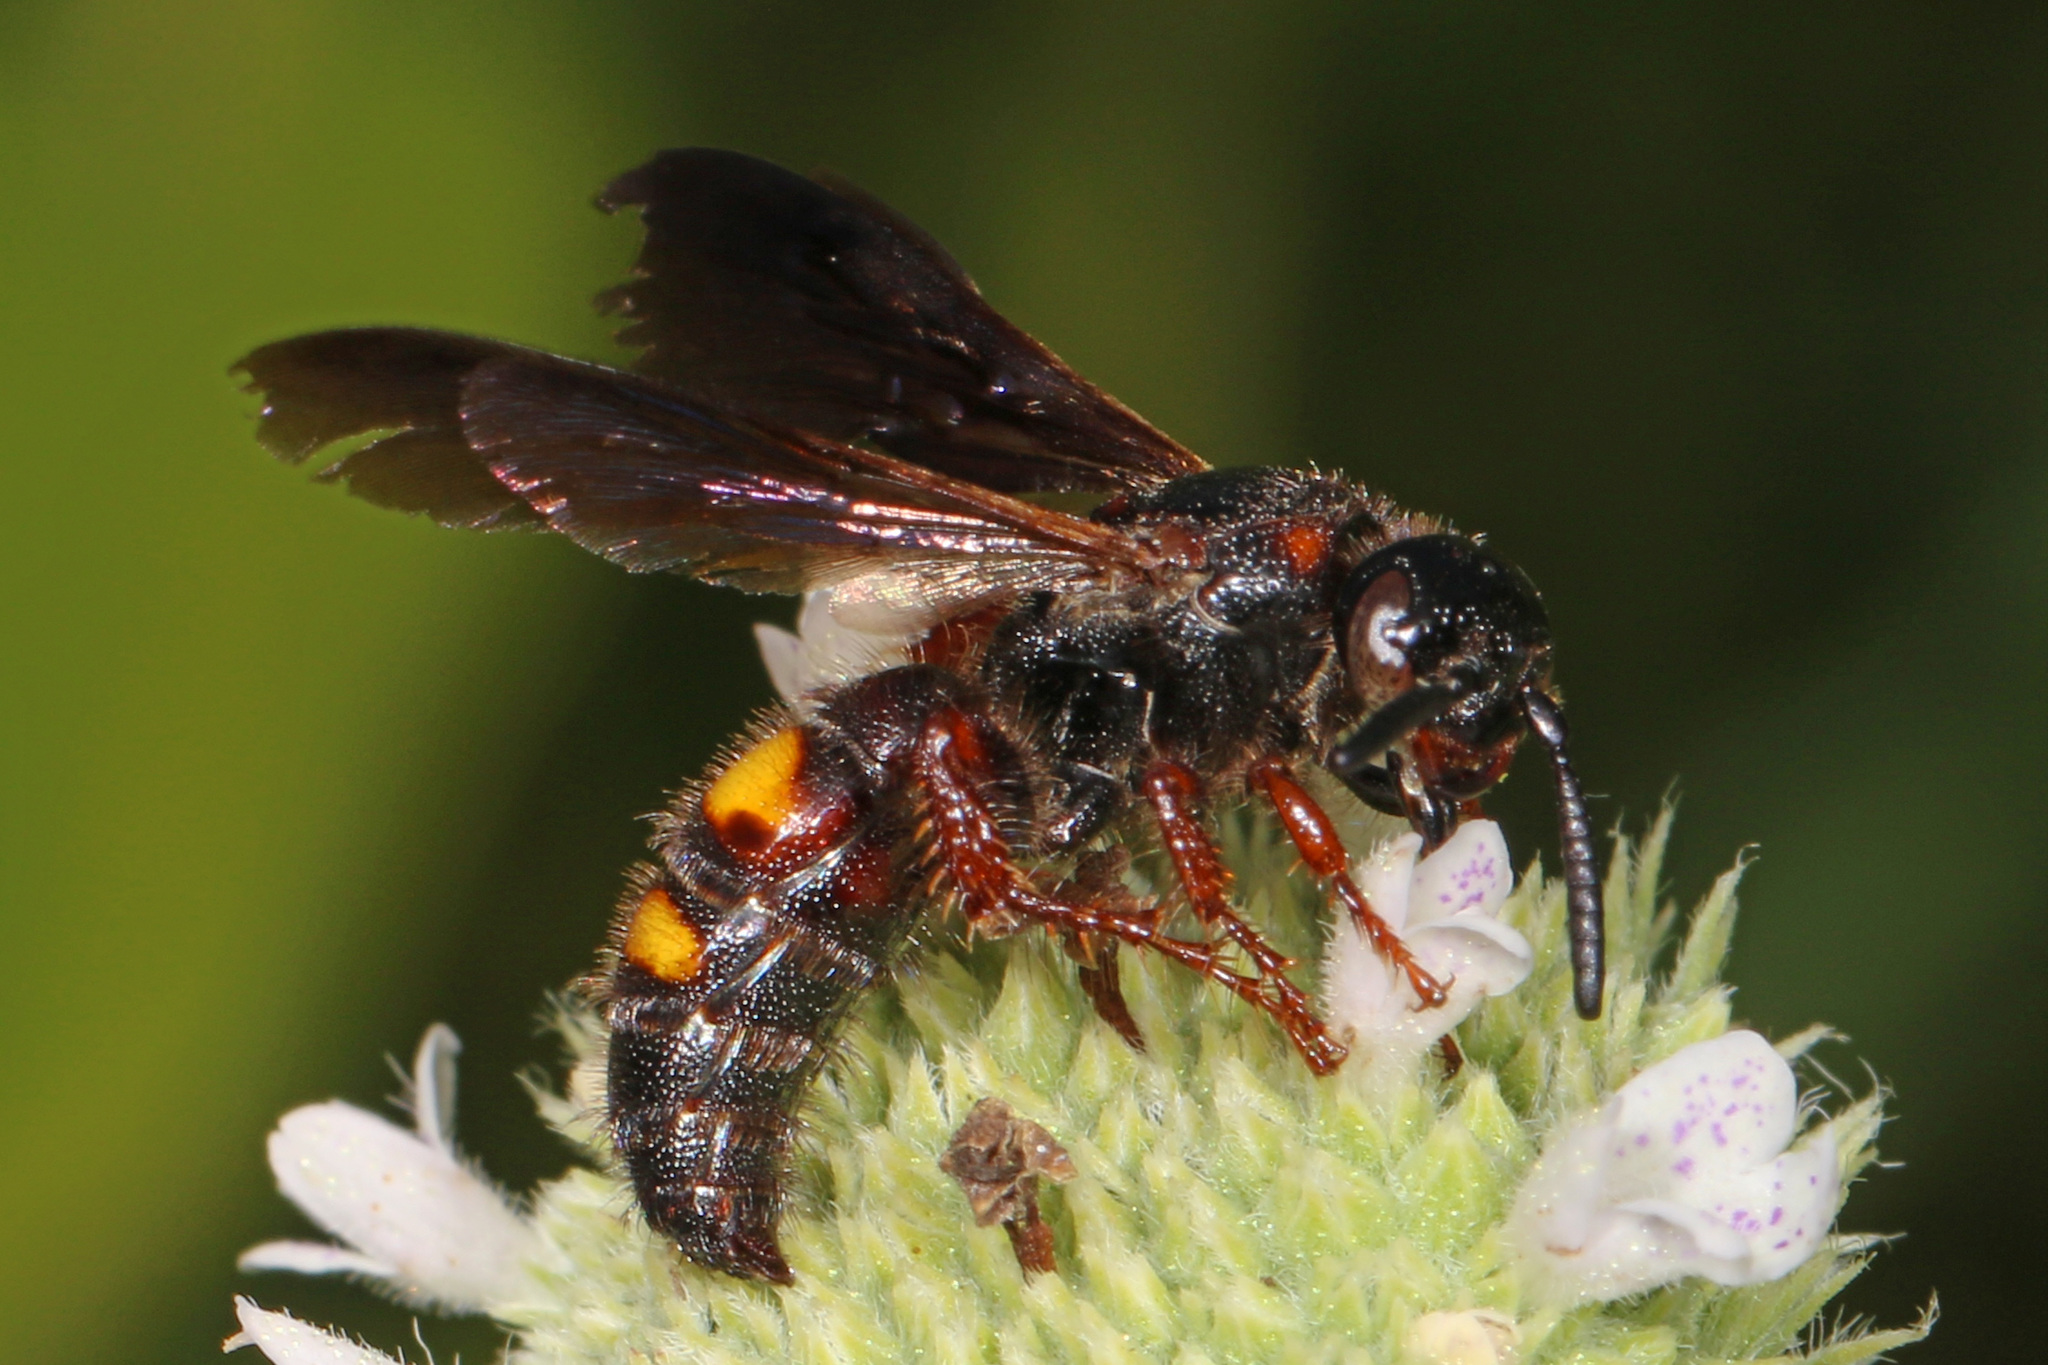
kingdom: Animalia
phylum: Arthropoda
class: Insecta
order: Hymenoptera
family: Scoliidae
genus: Scolia
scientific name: Scolia nobilitata
